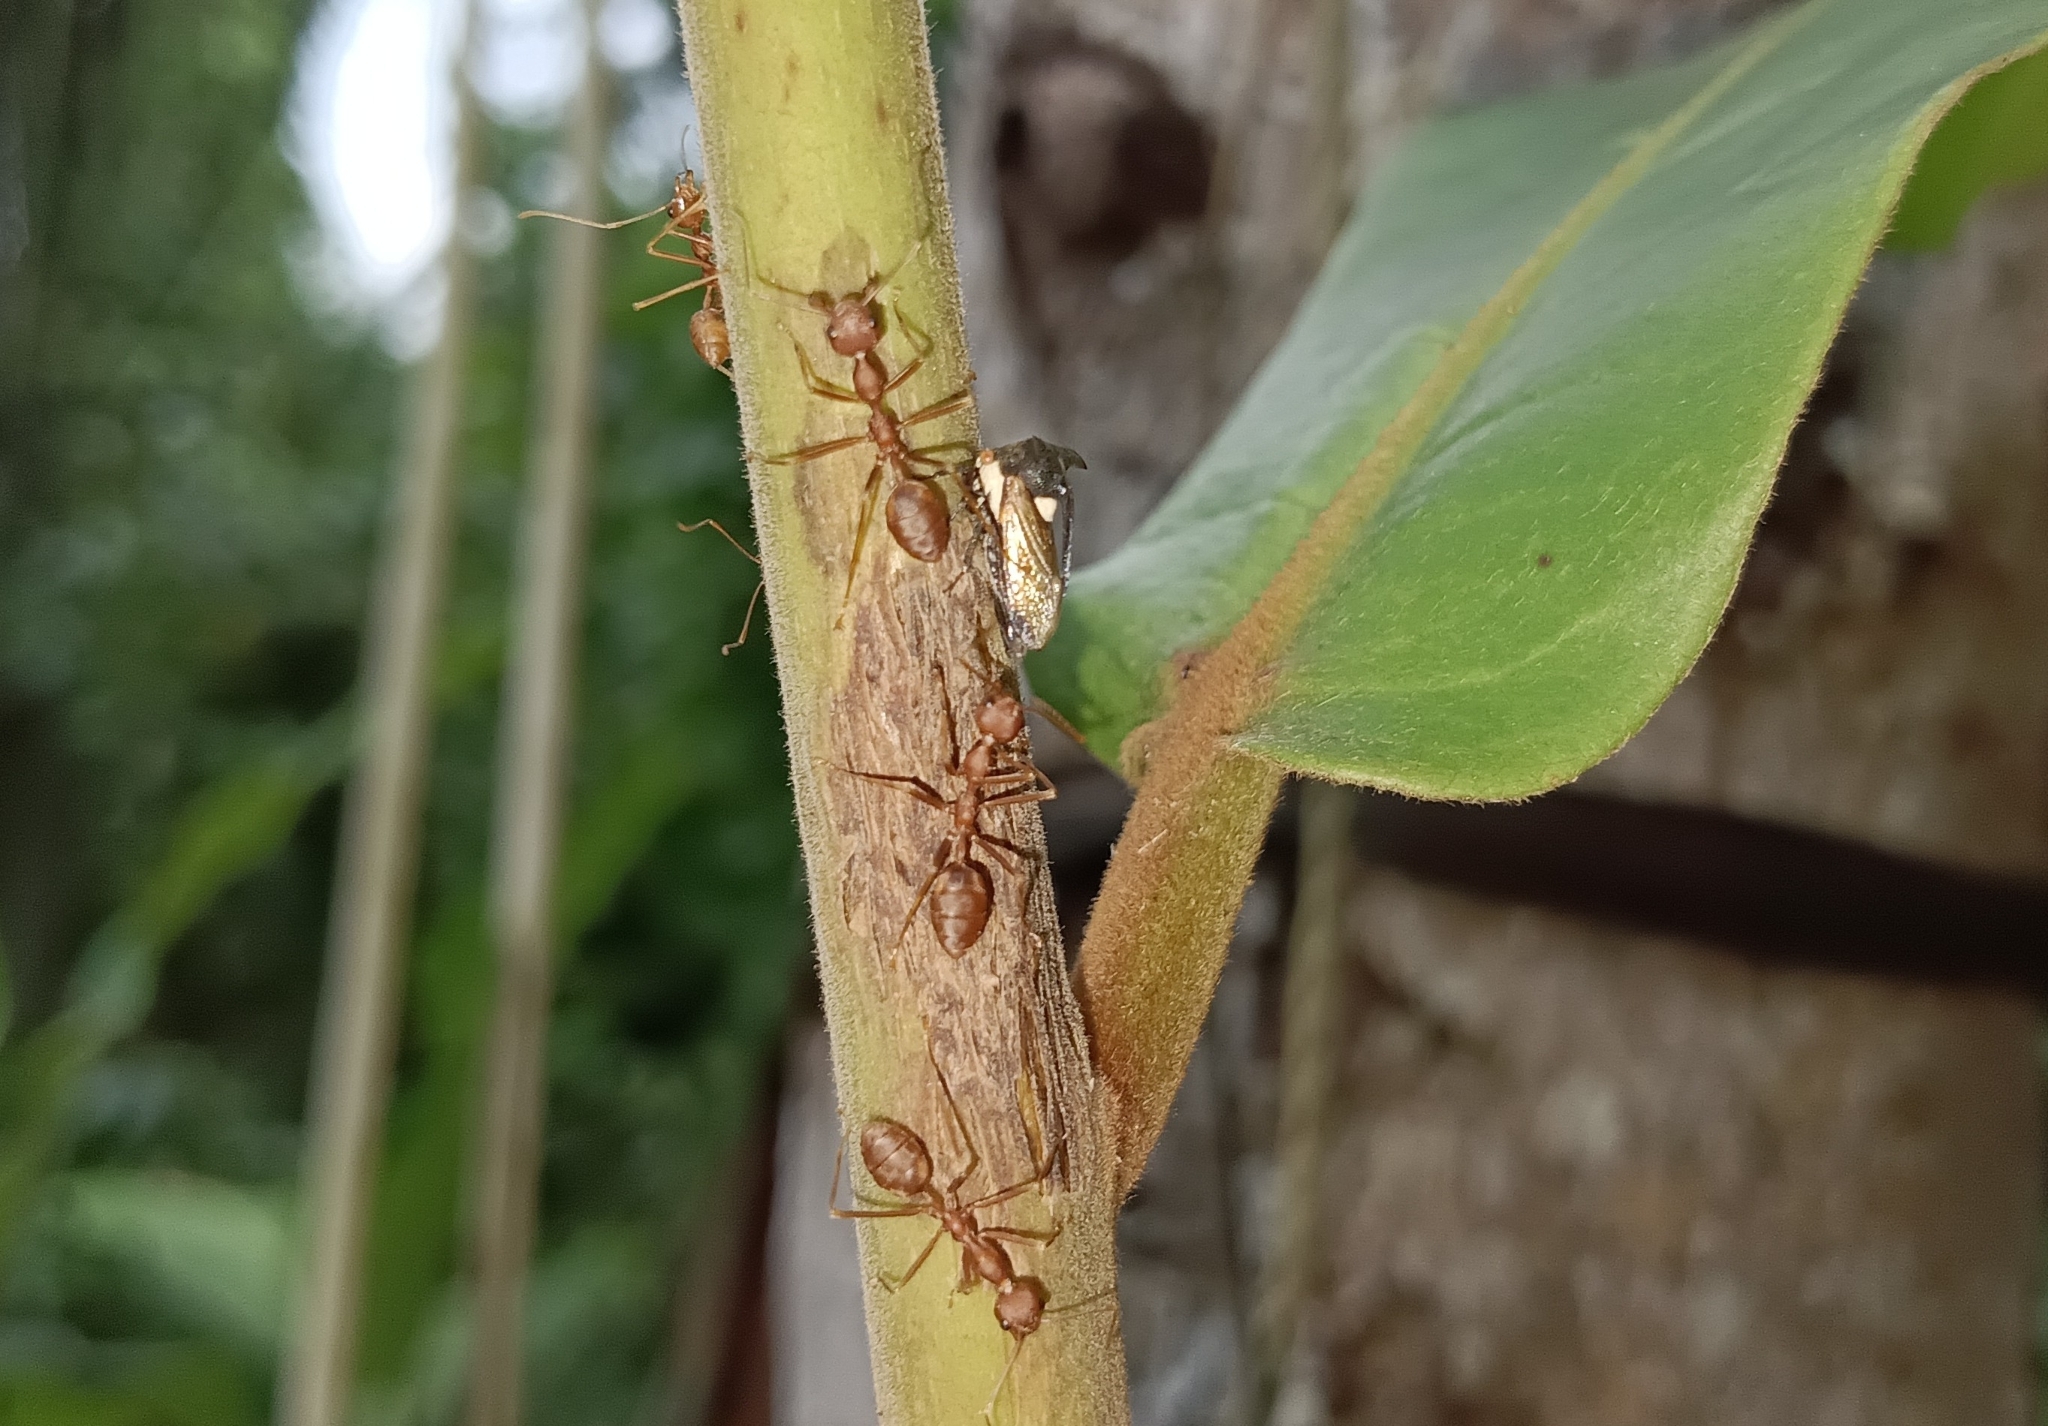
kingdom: Animalia
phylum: Arthropoda
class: Insecta
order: Hymenoptera
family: Formicidae
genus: Oecophylla
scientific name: Oecophylla smaragdina
